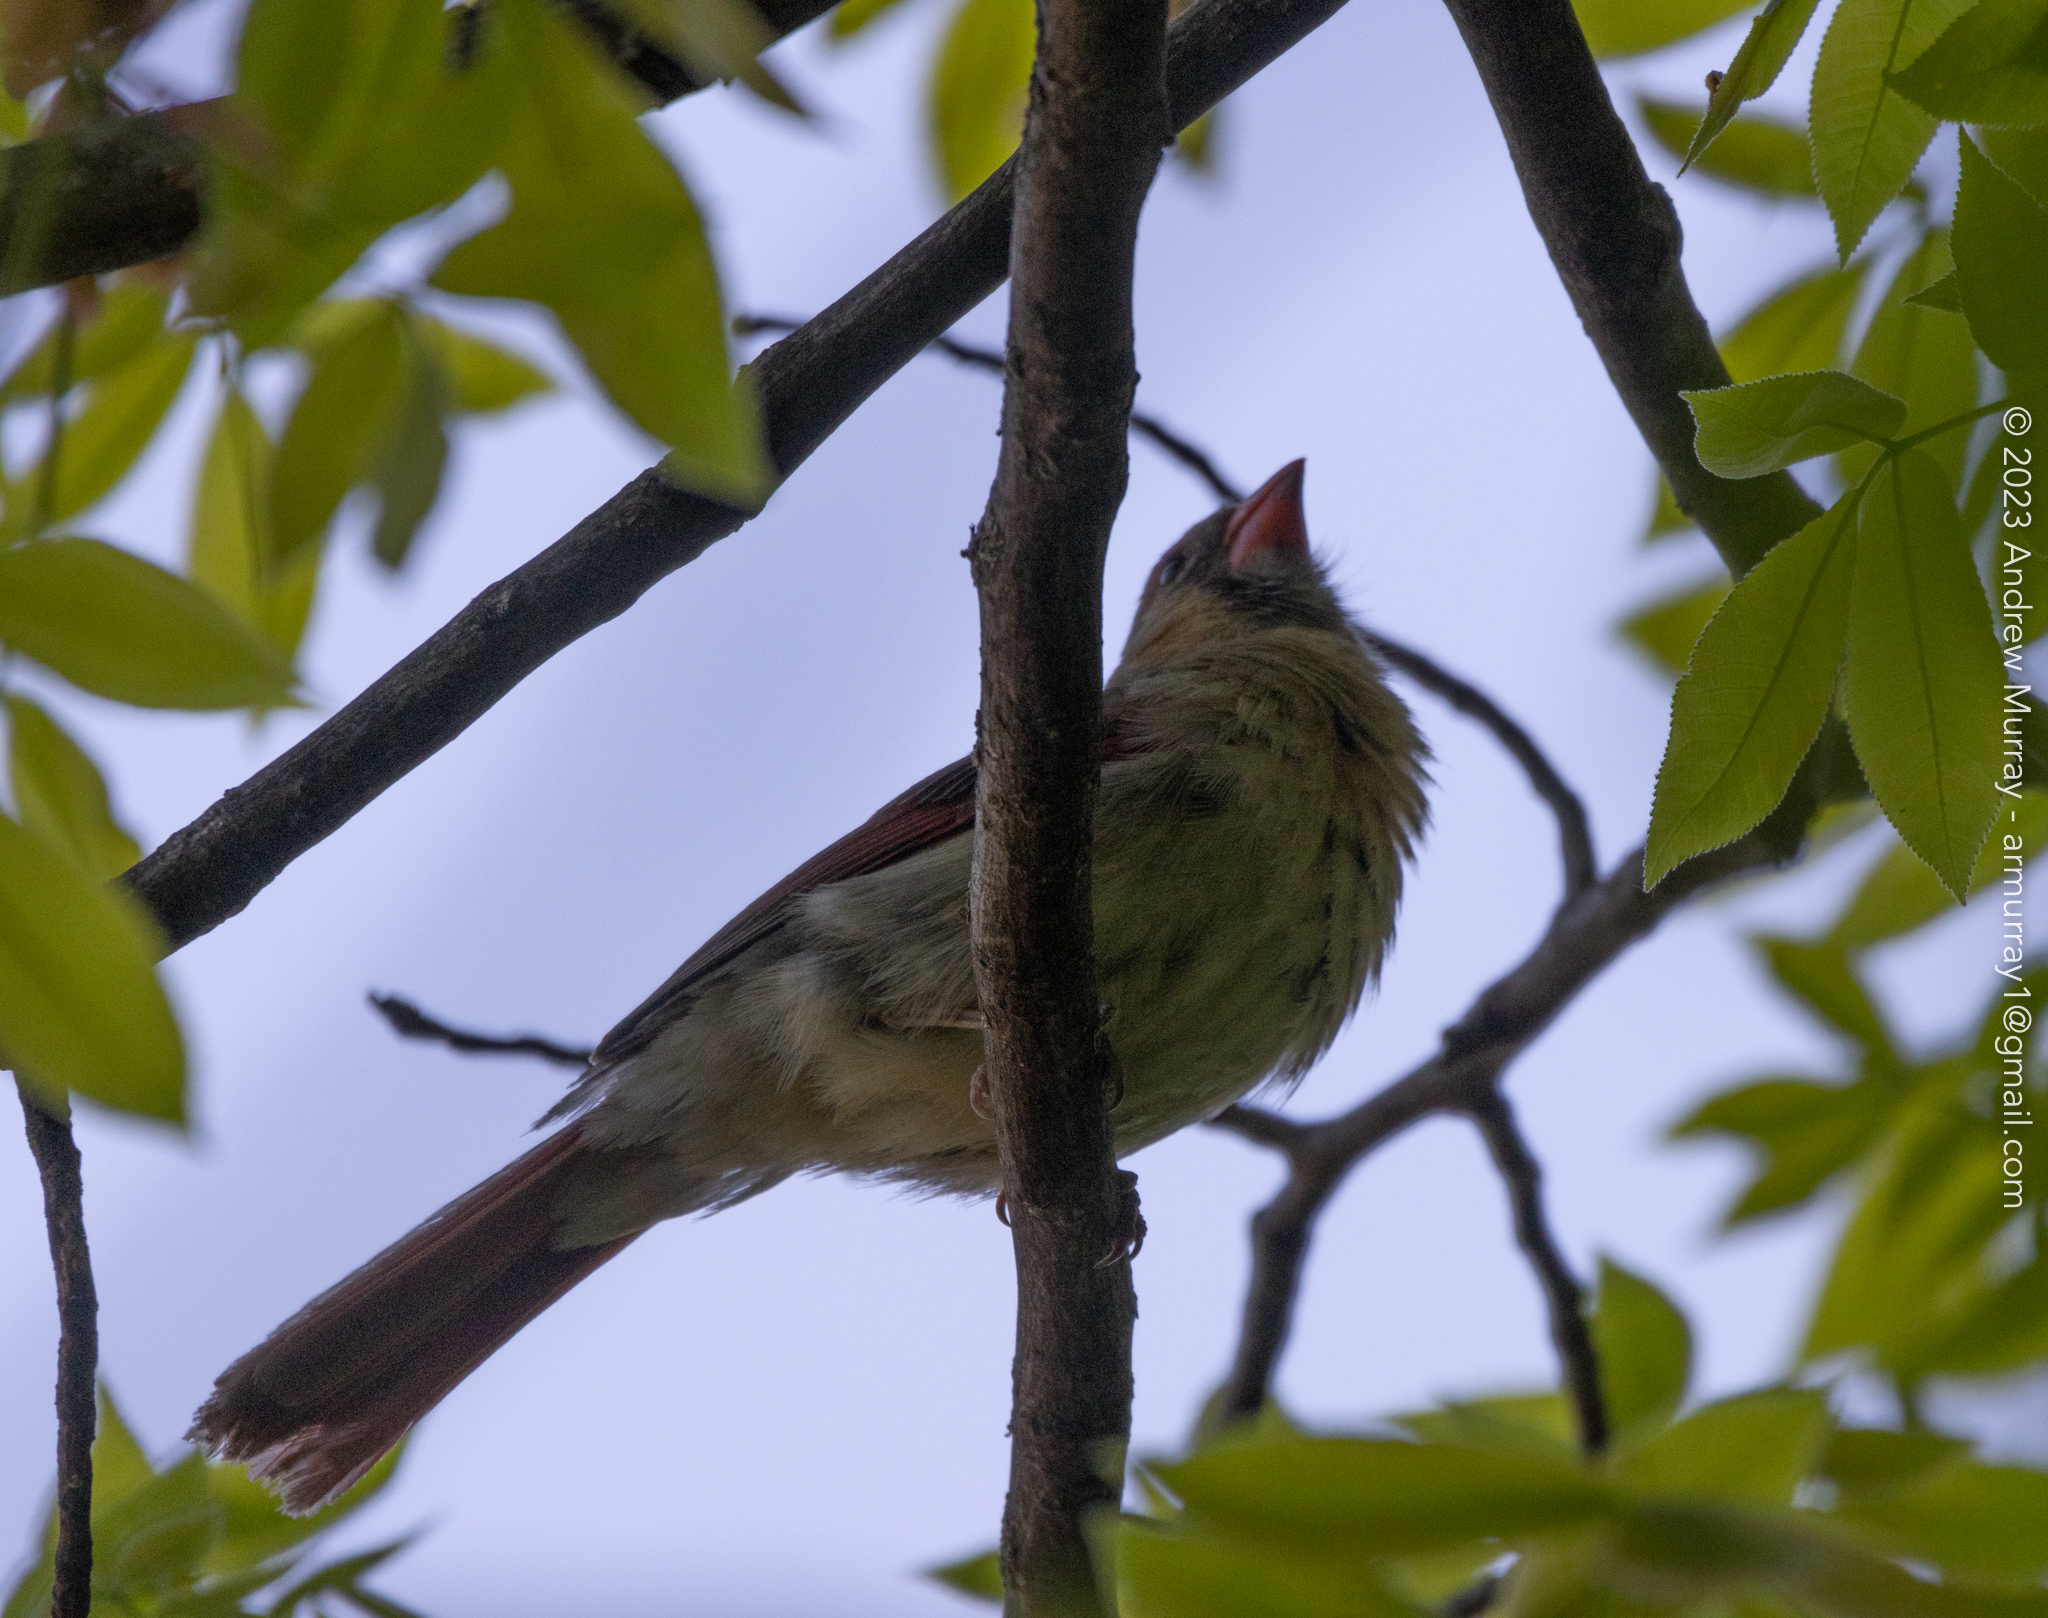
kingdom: Animalia
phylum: Chordata
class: Aves
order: Passeriformes
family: Cardinalidae
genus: Cardinalis
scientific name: Cardinalis cardinalis
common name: Northern cardinal
